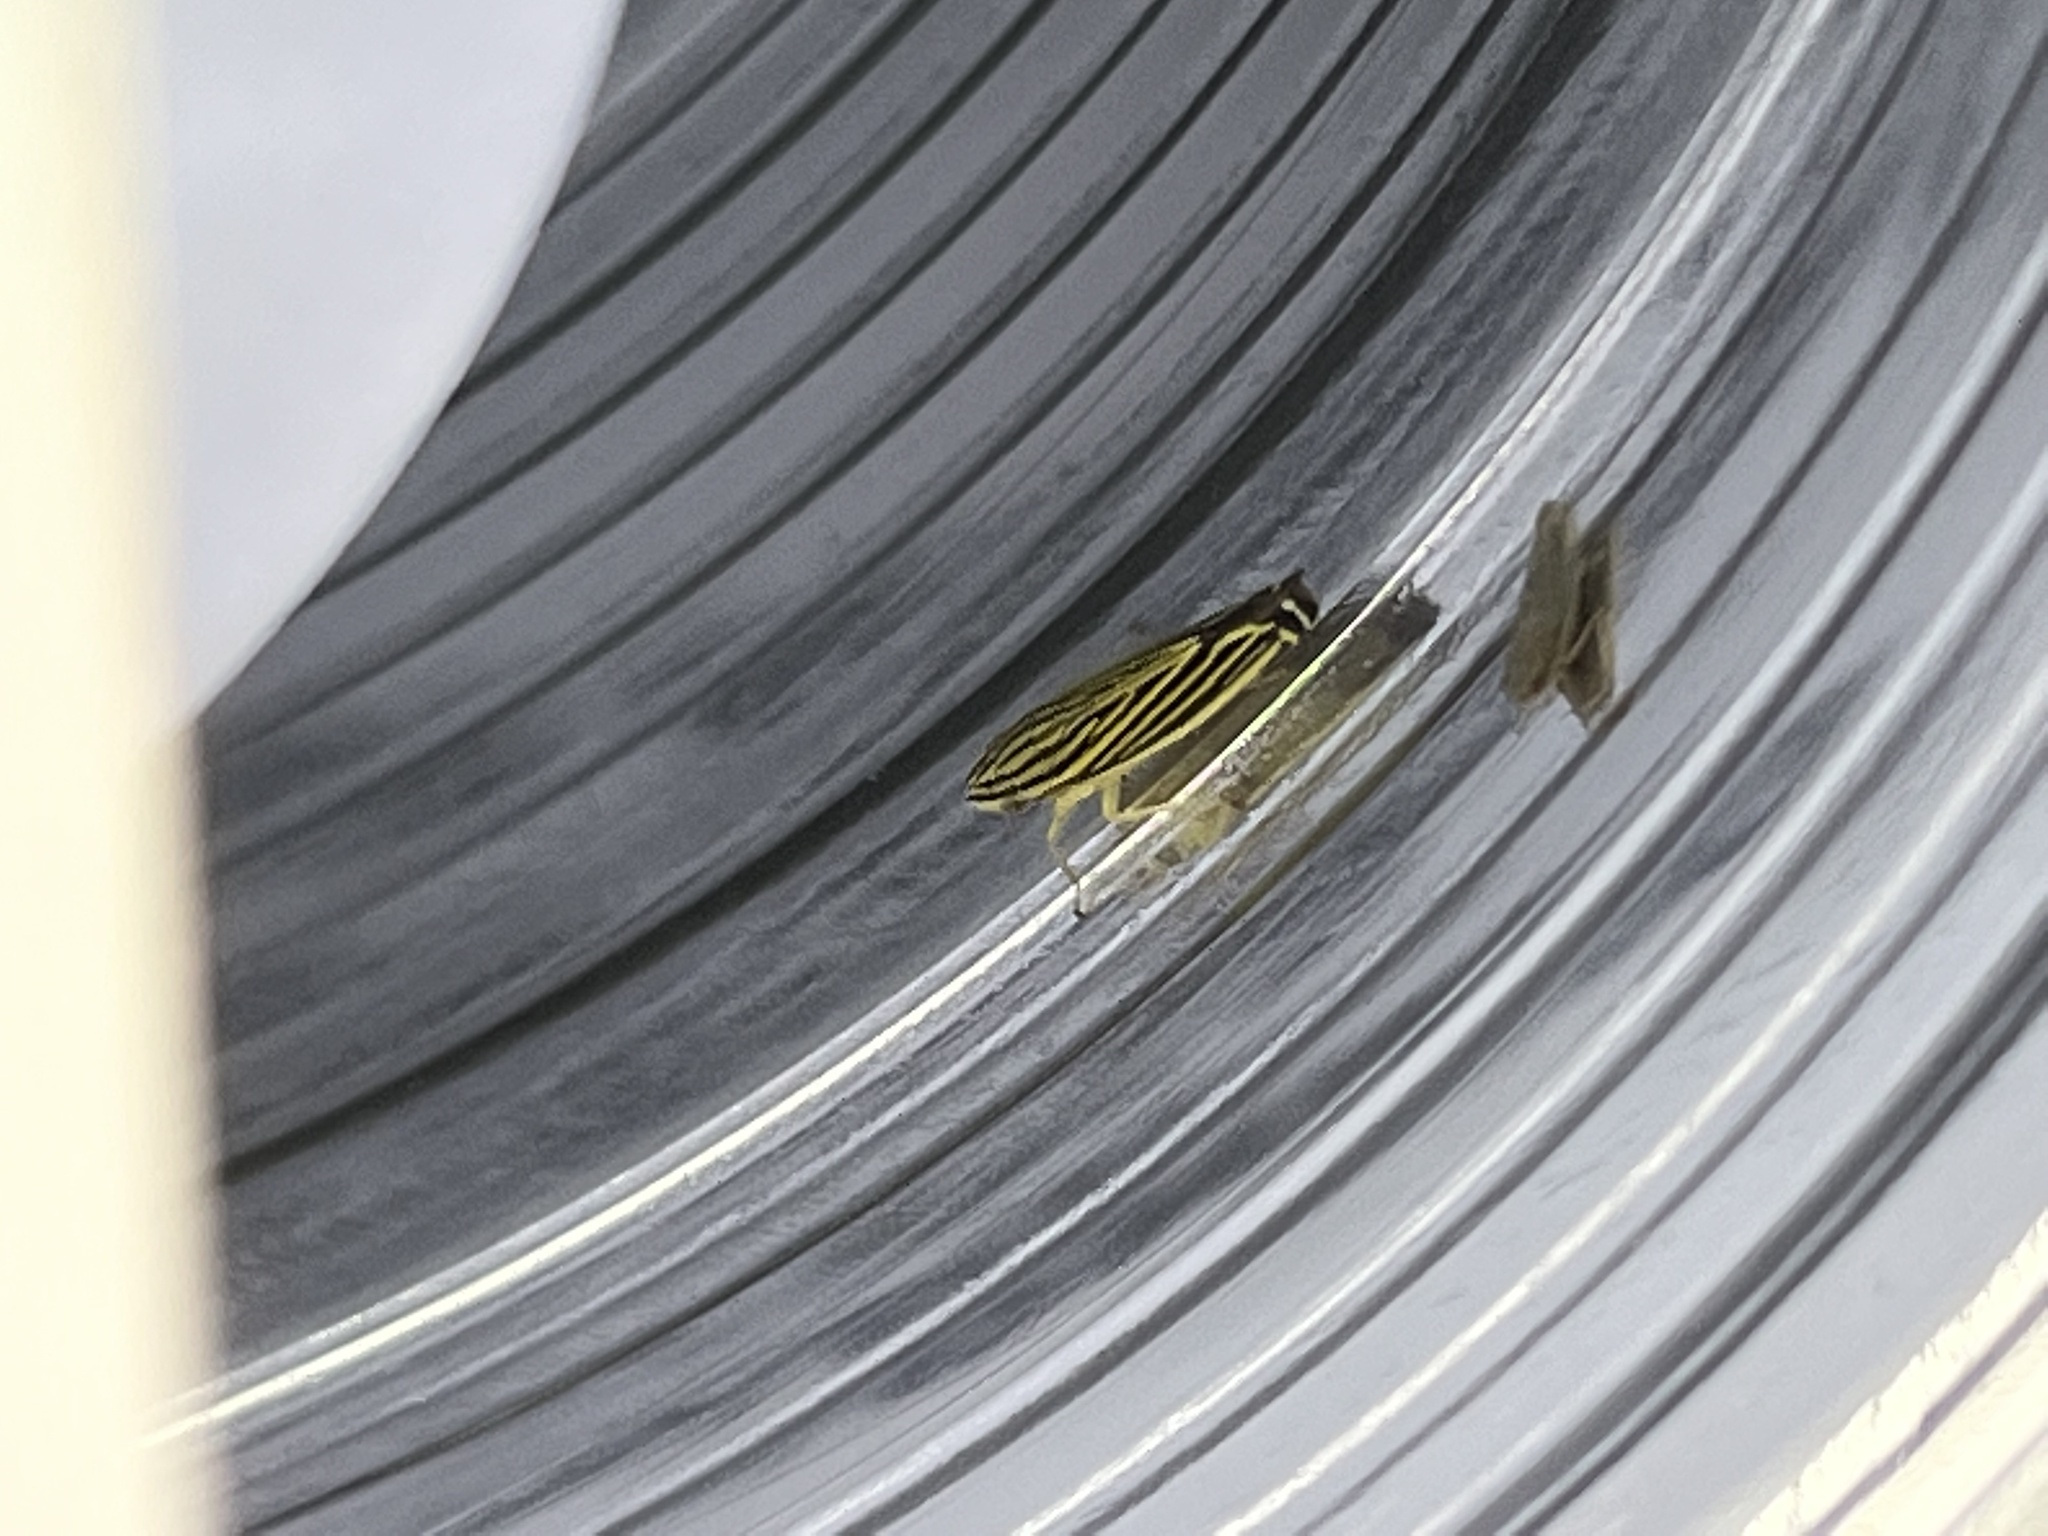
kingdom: Animalia
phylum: Arthropoda
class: Insecta
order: Hemiptera
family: Cicadellidae
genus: Sibovia
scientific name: Sibovia occatoria
